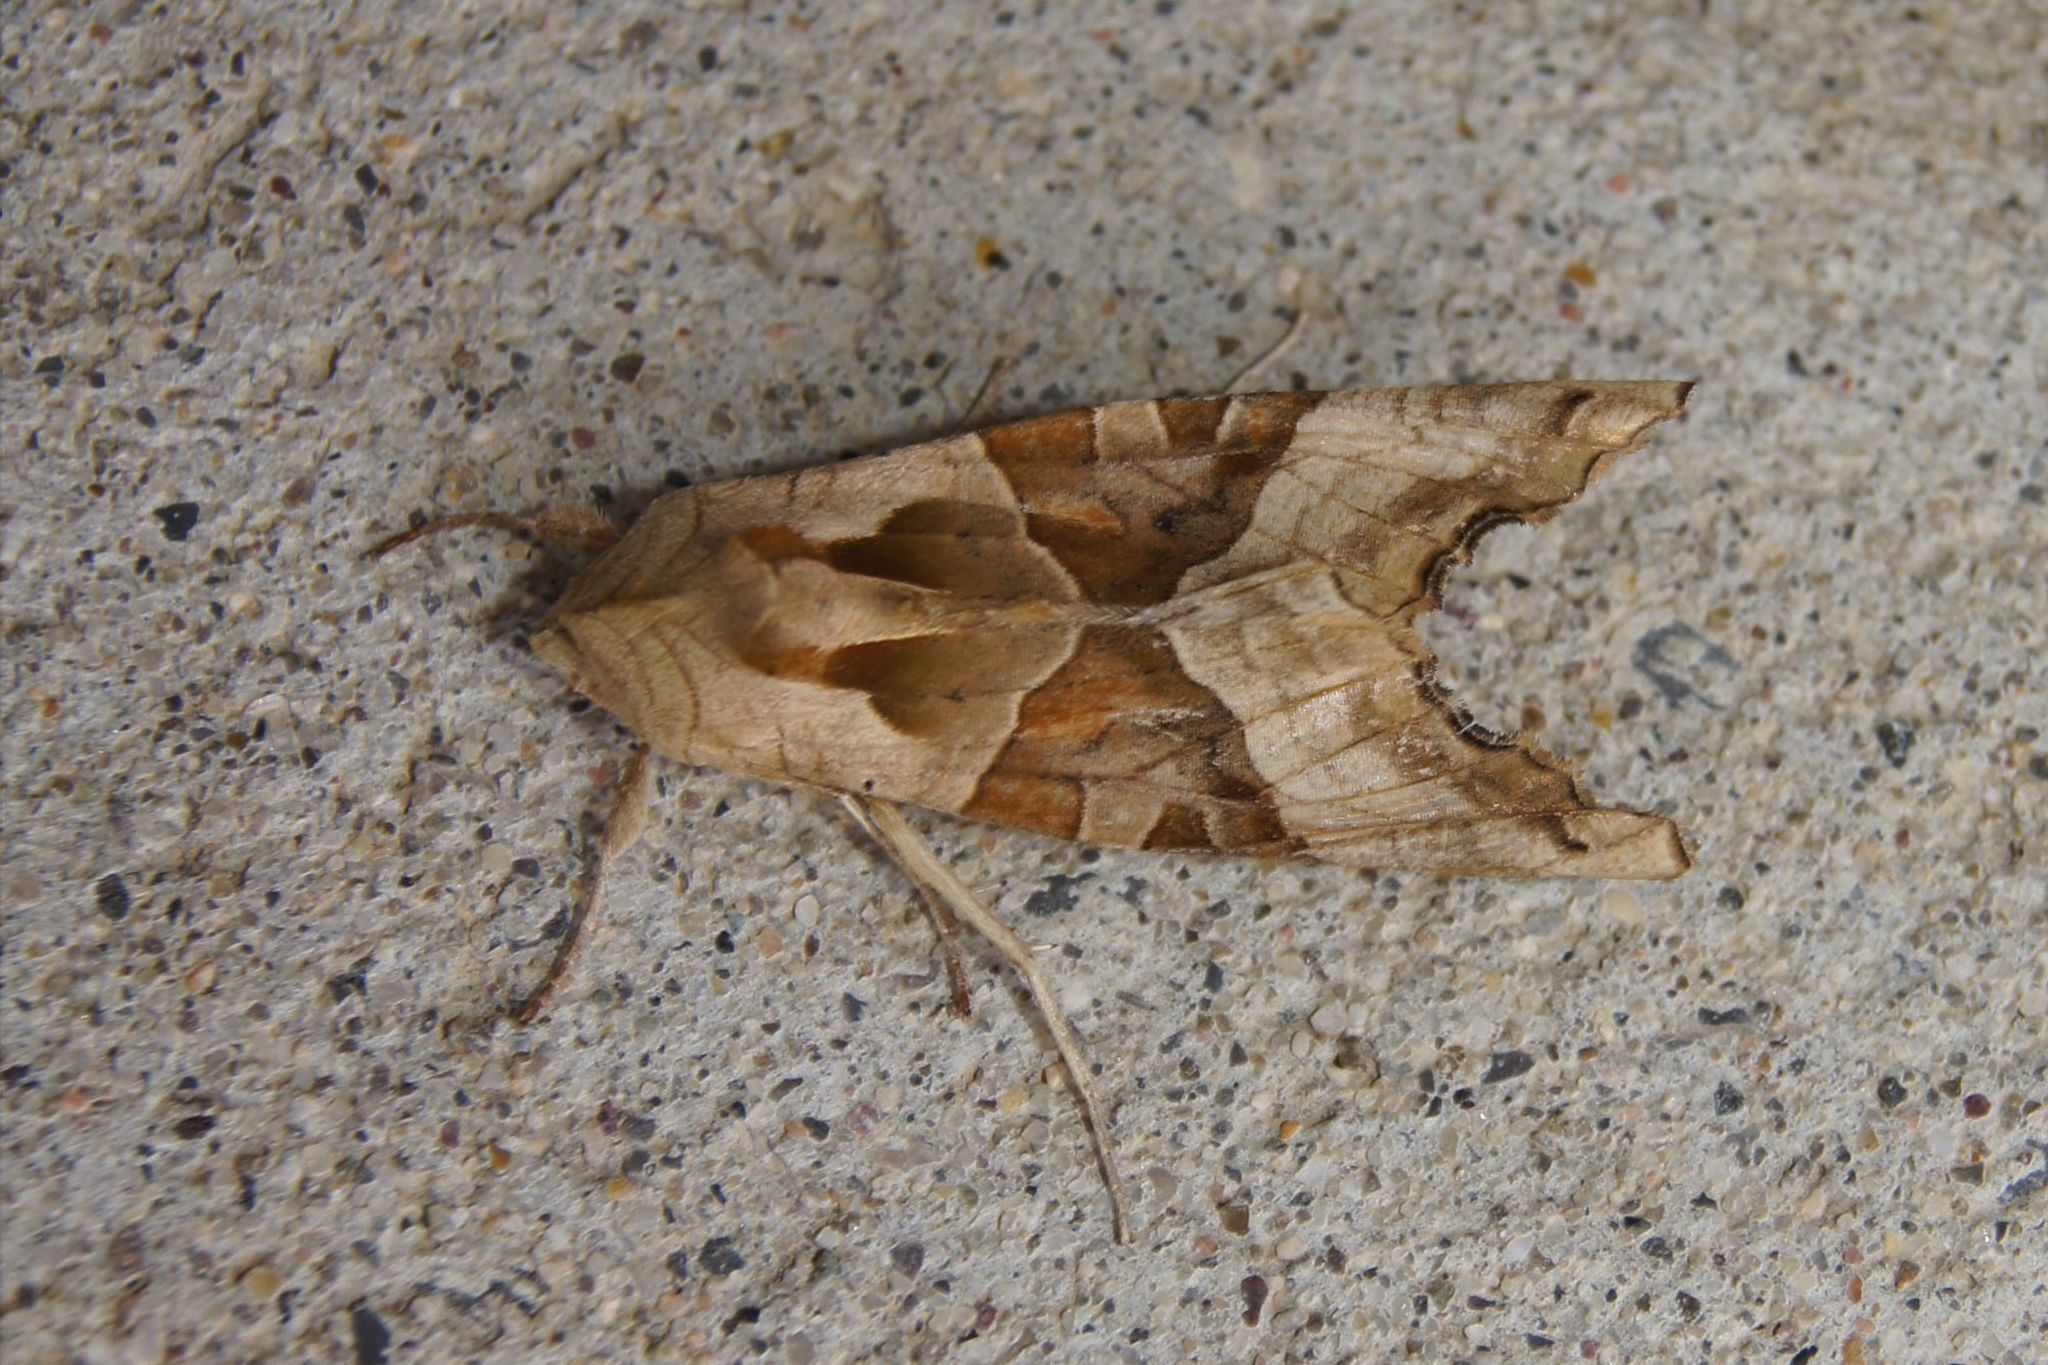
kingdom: Animalia
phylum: Arthropoda
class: Insecta
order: Lepidoptera
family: Noctuidae
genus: Phlogophora
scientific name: Phlogophora meticulosa
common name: Angle shades
